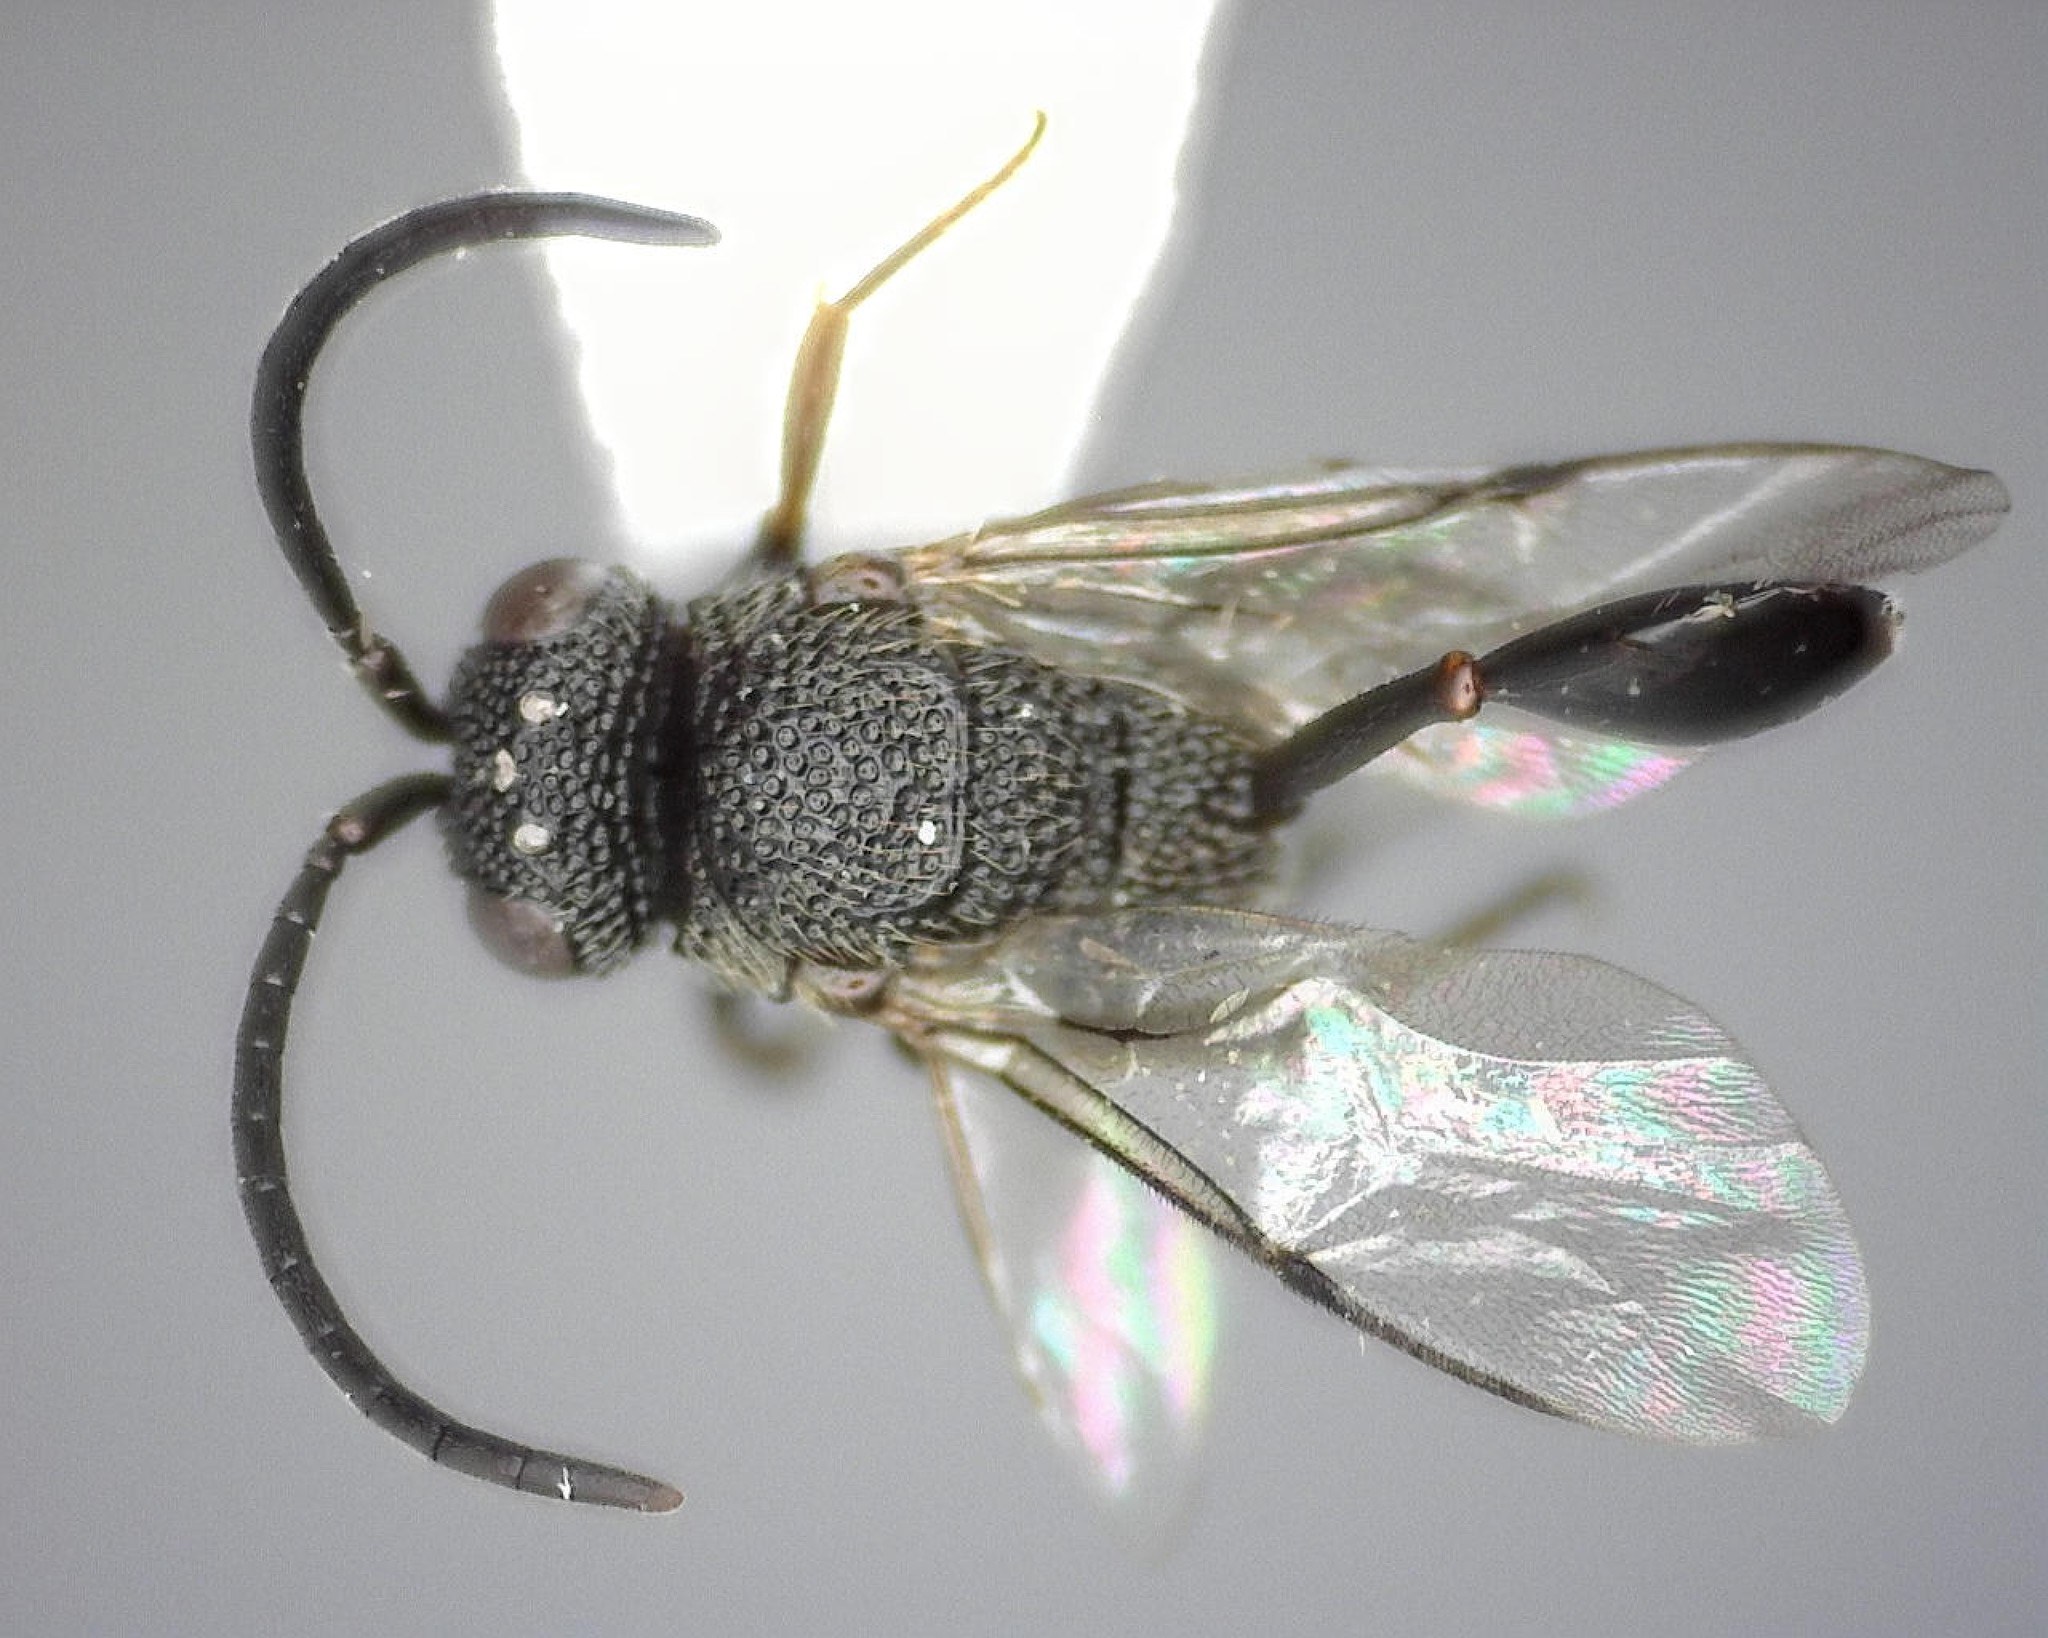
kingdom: Animalia
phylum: Arthropoda
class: Insecta
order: Hymenoptera
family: Evaniidae
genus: Hyptia
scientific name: Hyptia harpyoides
